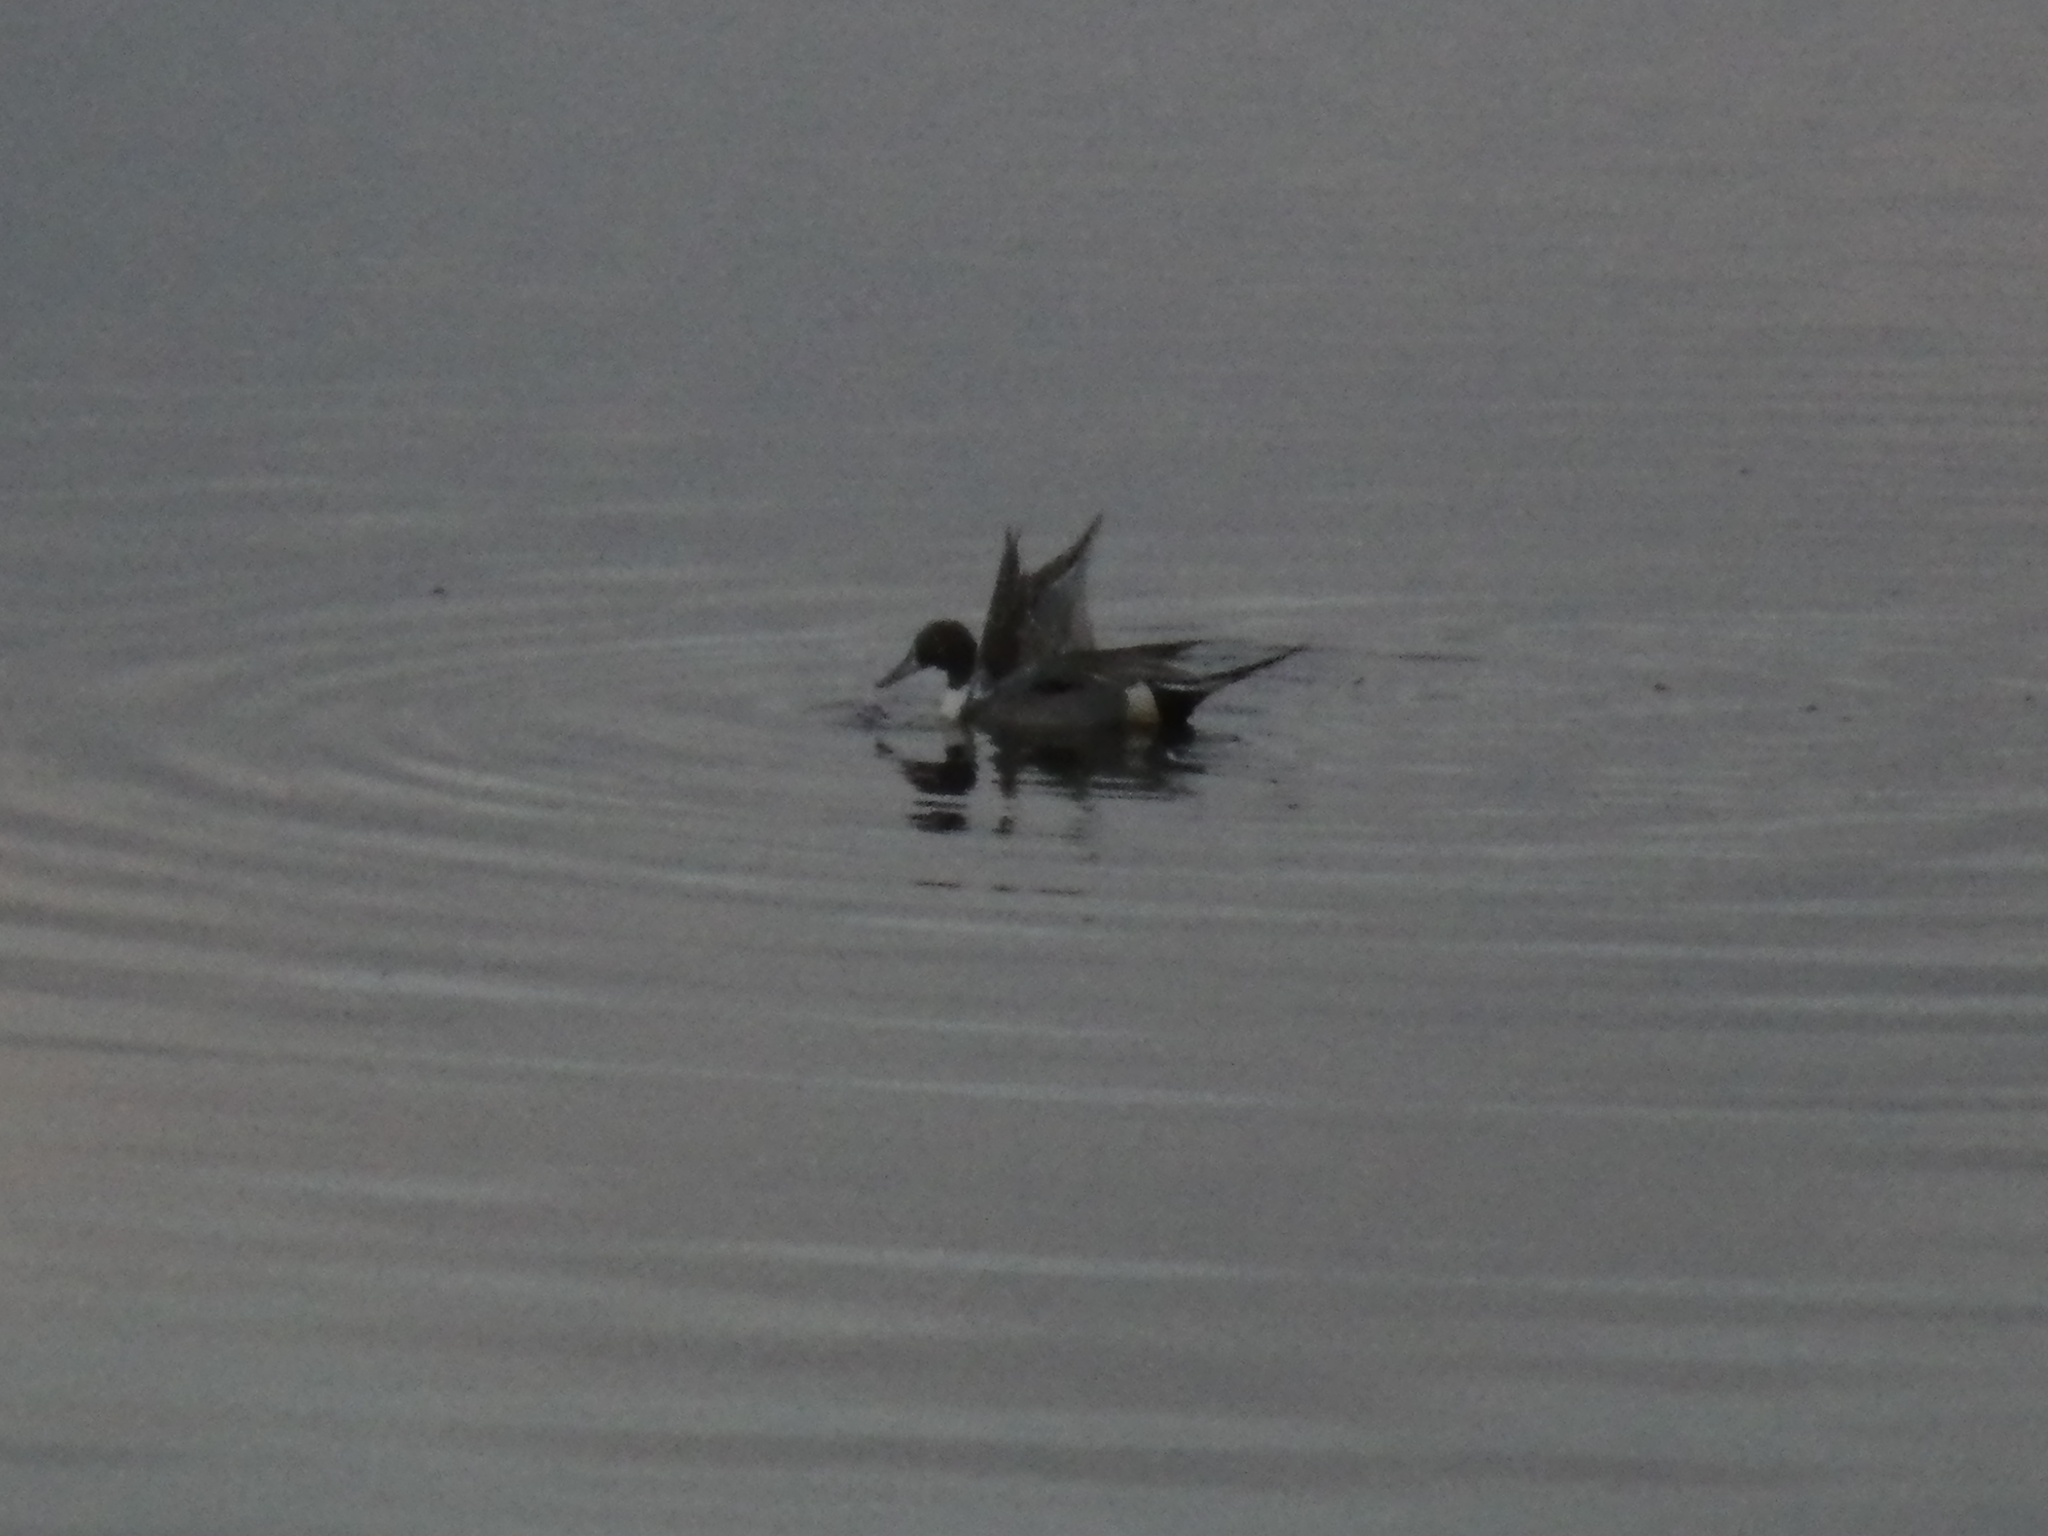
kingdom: Animalia
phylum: Chordata
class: Aves
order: Anseriformes
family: Anatidae
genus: Anas
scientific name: Anas acuta
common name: Northern pintail
